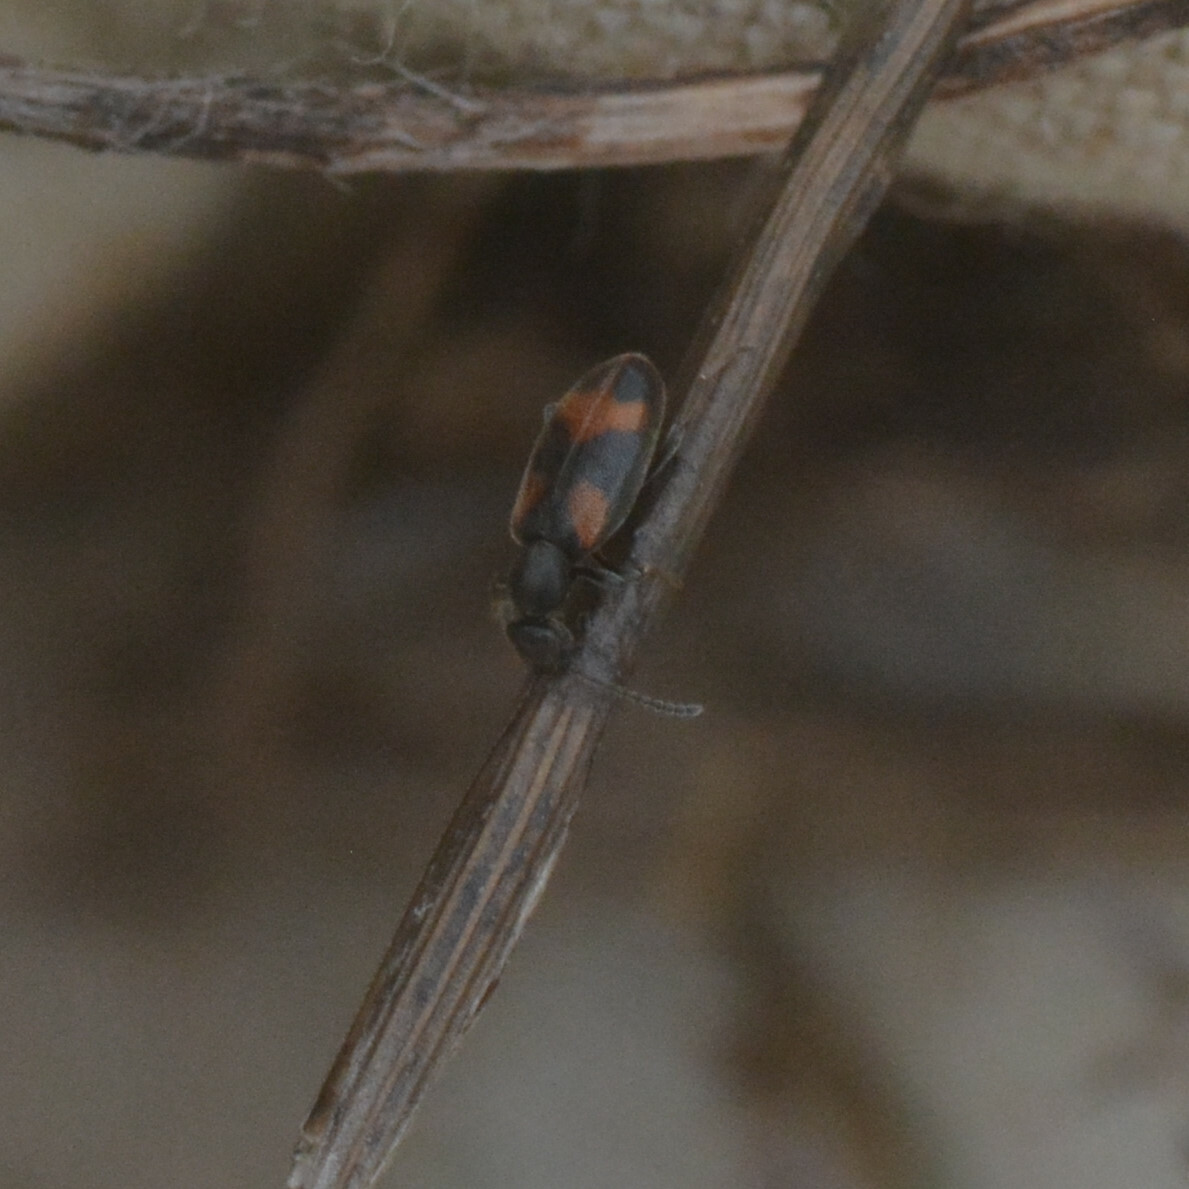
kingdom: Animalia
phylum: Arthropoda
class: Insecta
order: Coleoptera
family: Anthicidae
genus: Anthicus
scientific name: Anthicus antherinus
